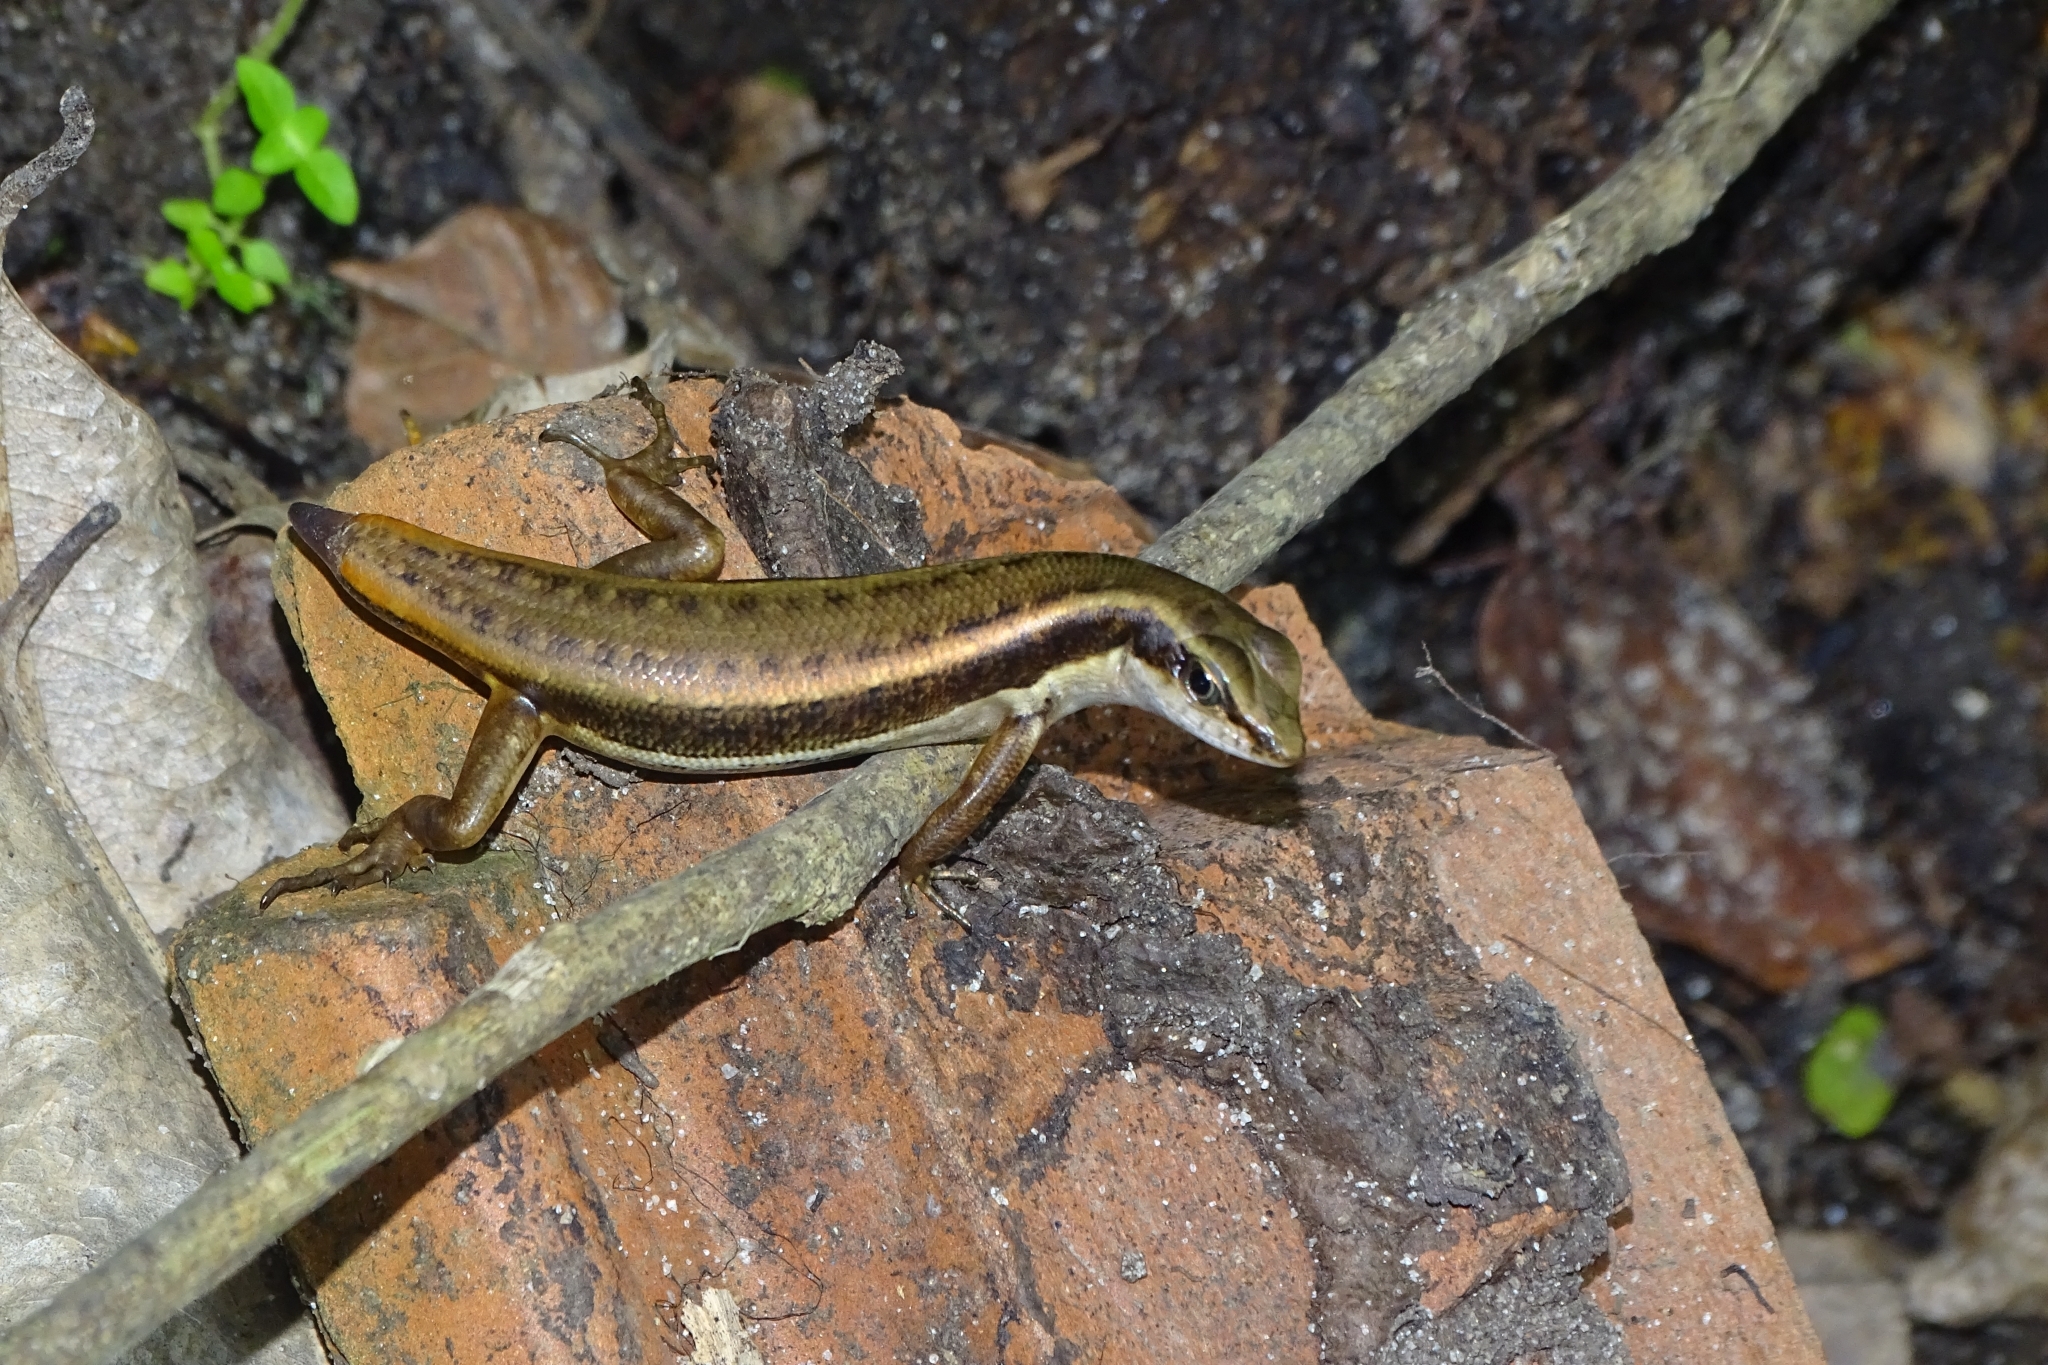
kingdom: Animalia
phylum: Chordata
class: Squamata
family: Scincidae
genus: Sphenomorphus
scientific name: Sphenomorphus dussumieri
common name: Dussumier's forest skink
